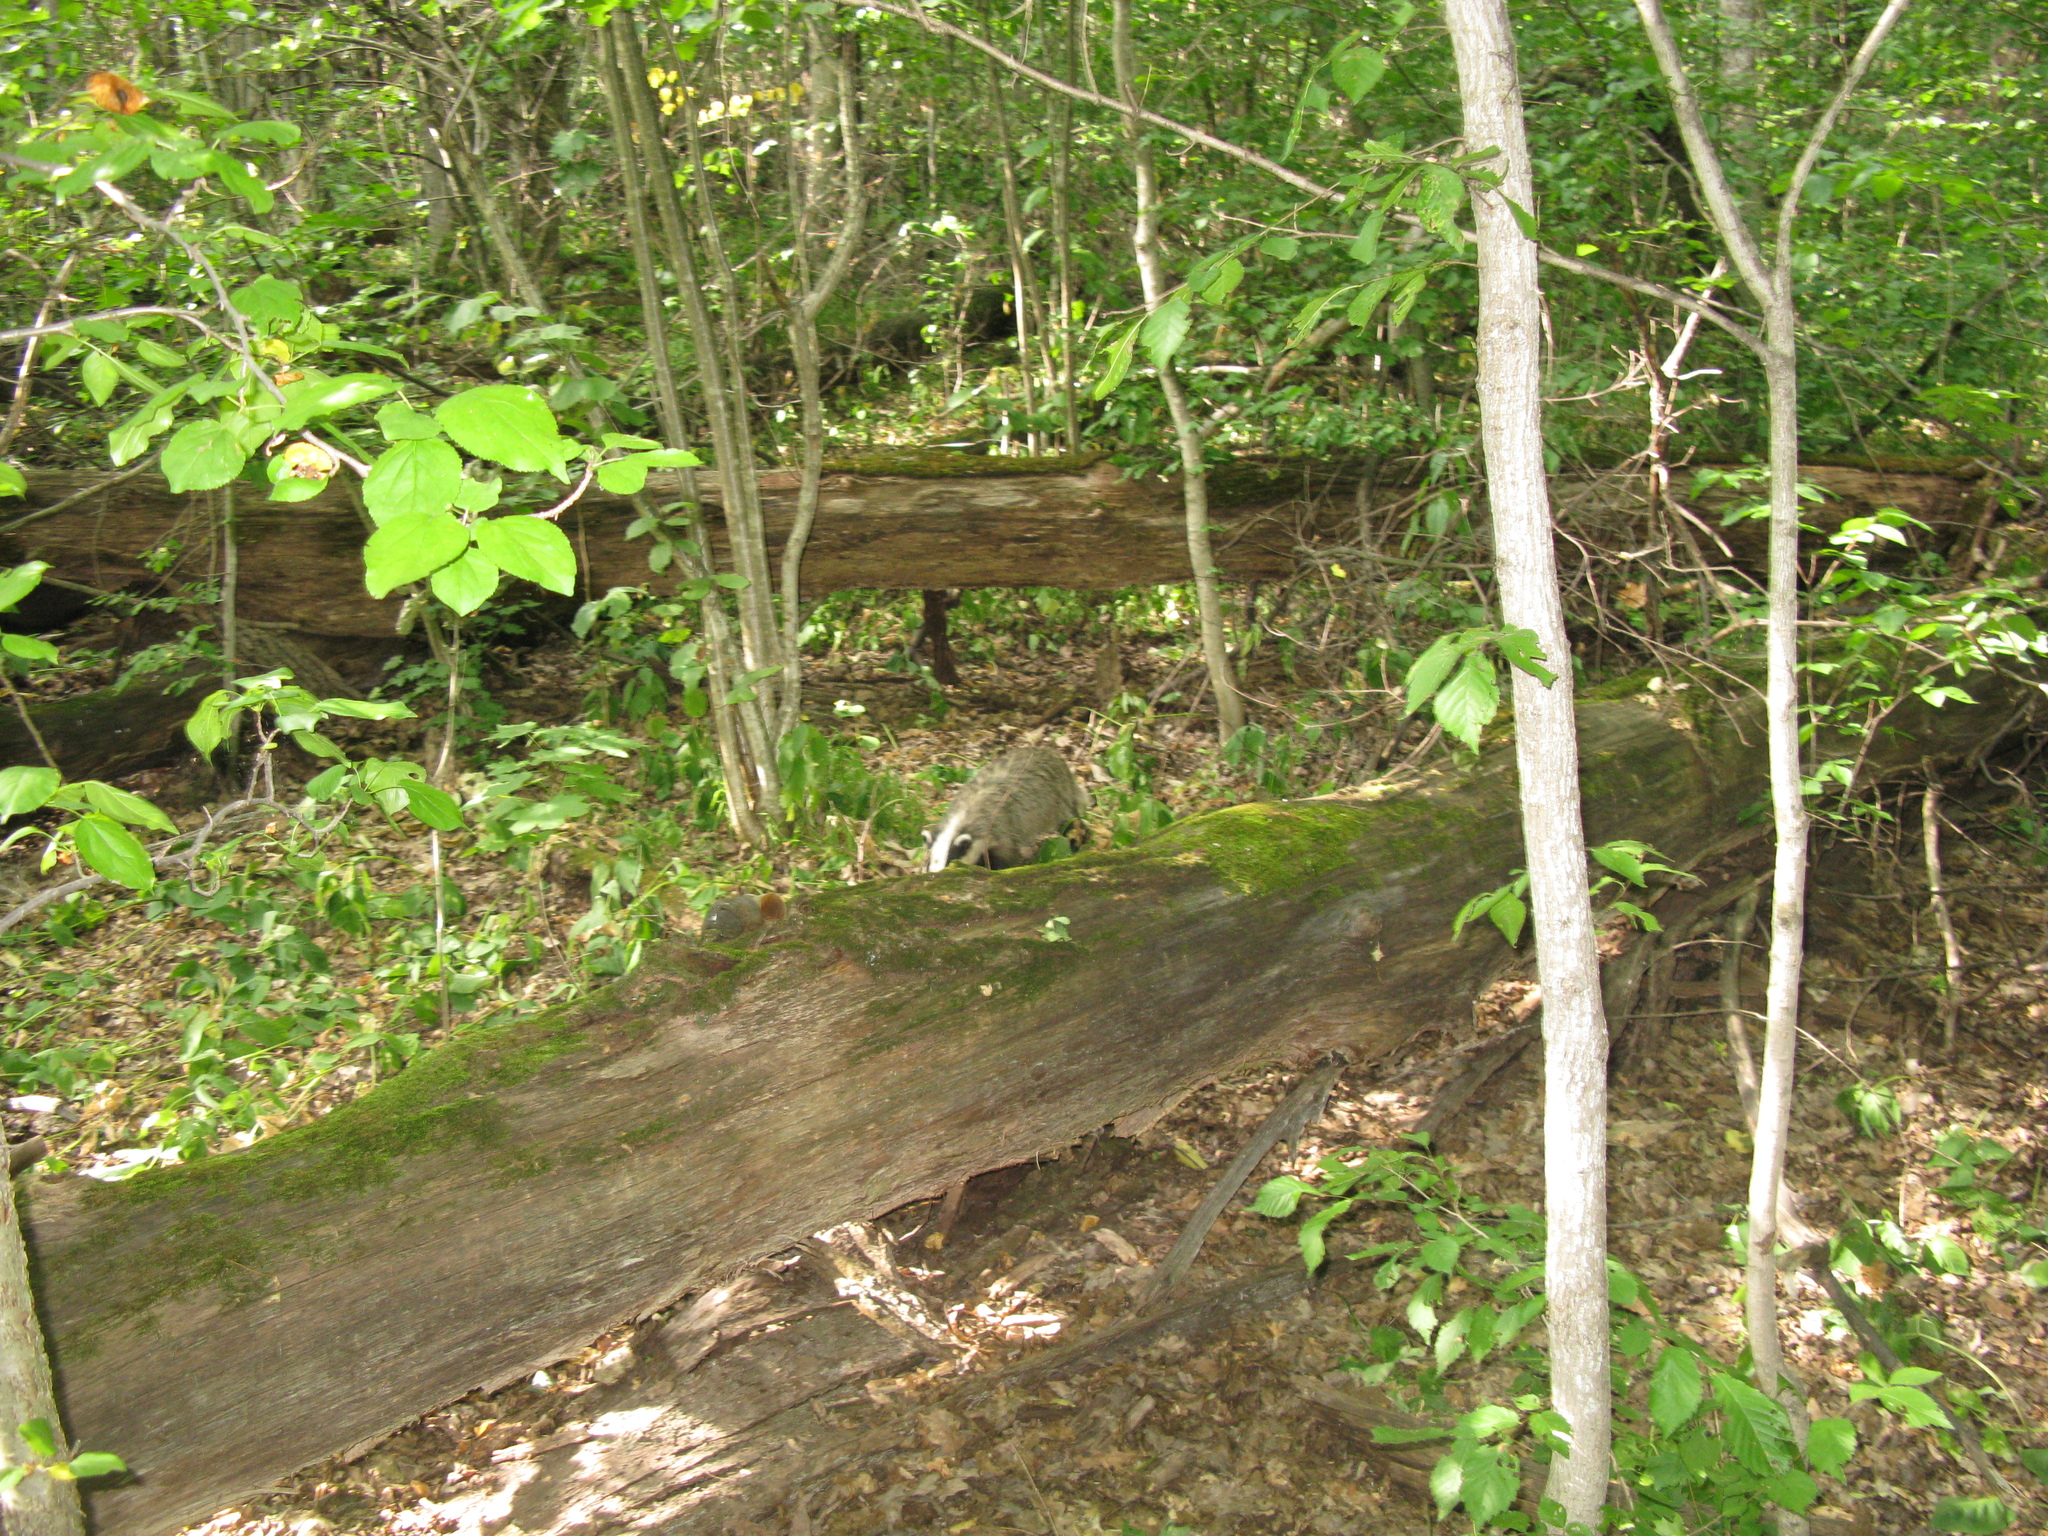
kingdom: Animalia
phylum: Chordata
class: Mammalia
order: Carnivora
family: Mustelidae
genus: Meles
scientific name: Meles meles
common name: Eurasian badger
